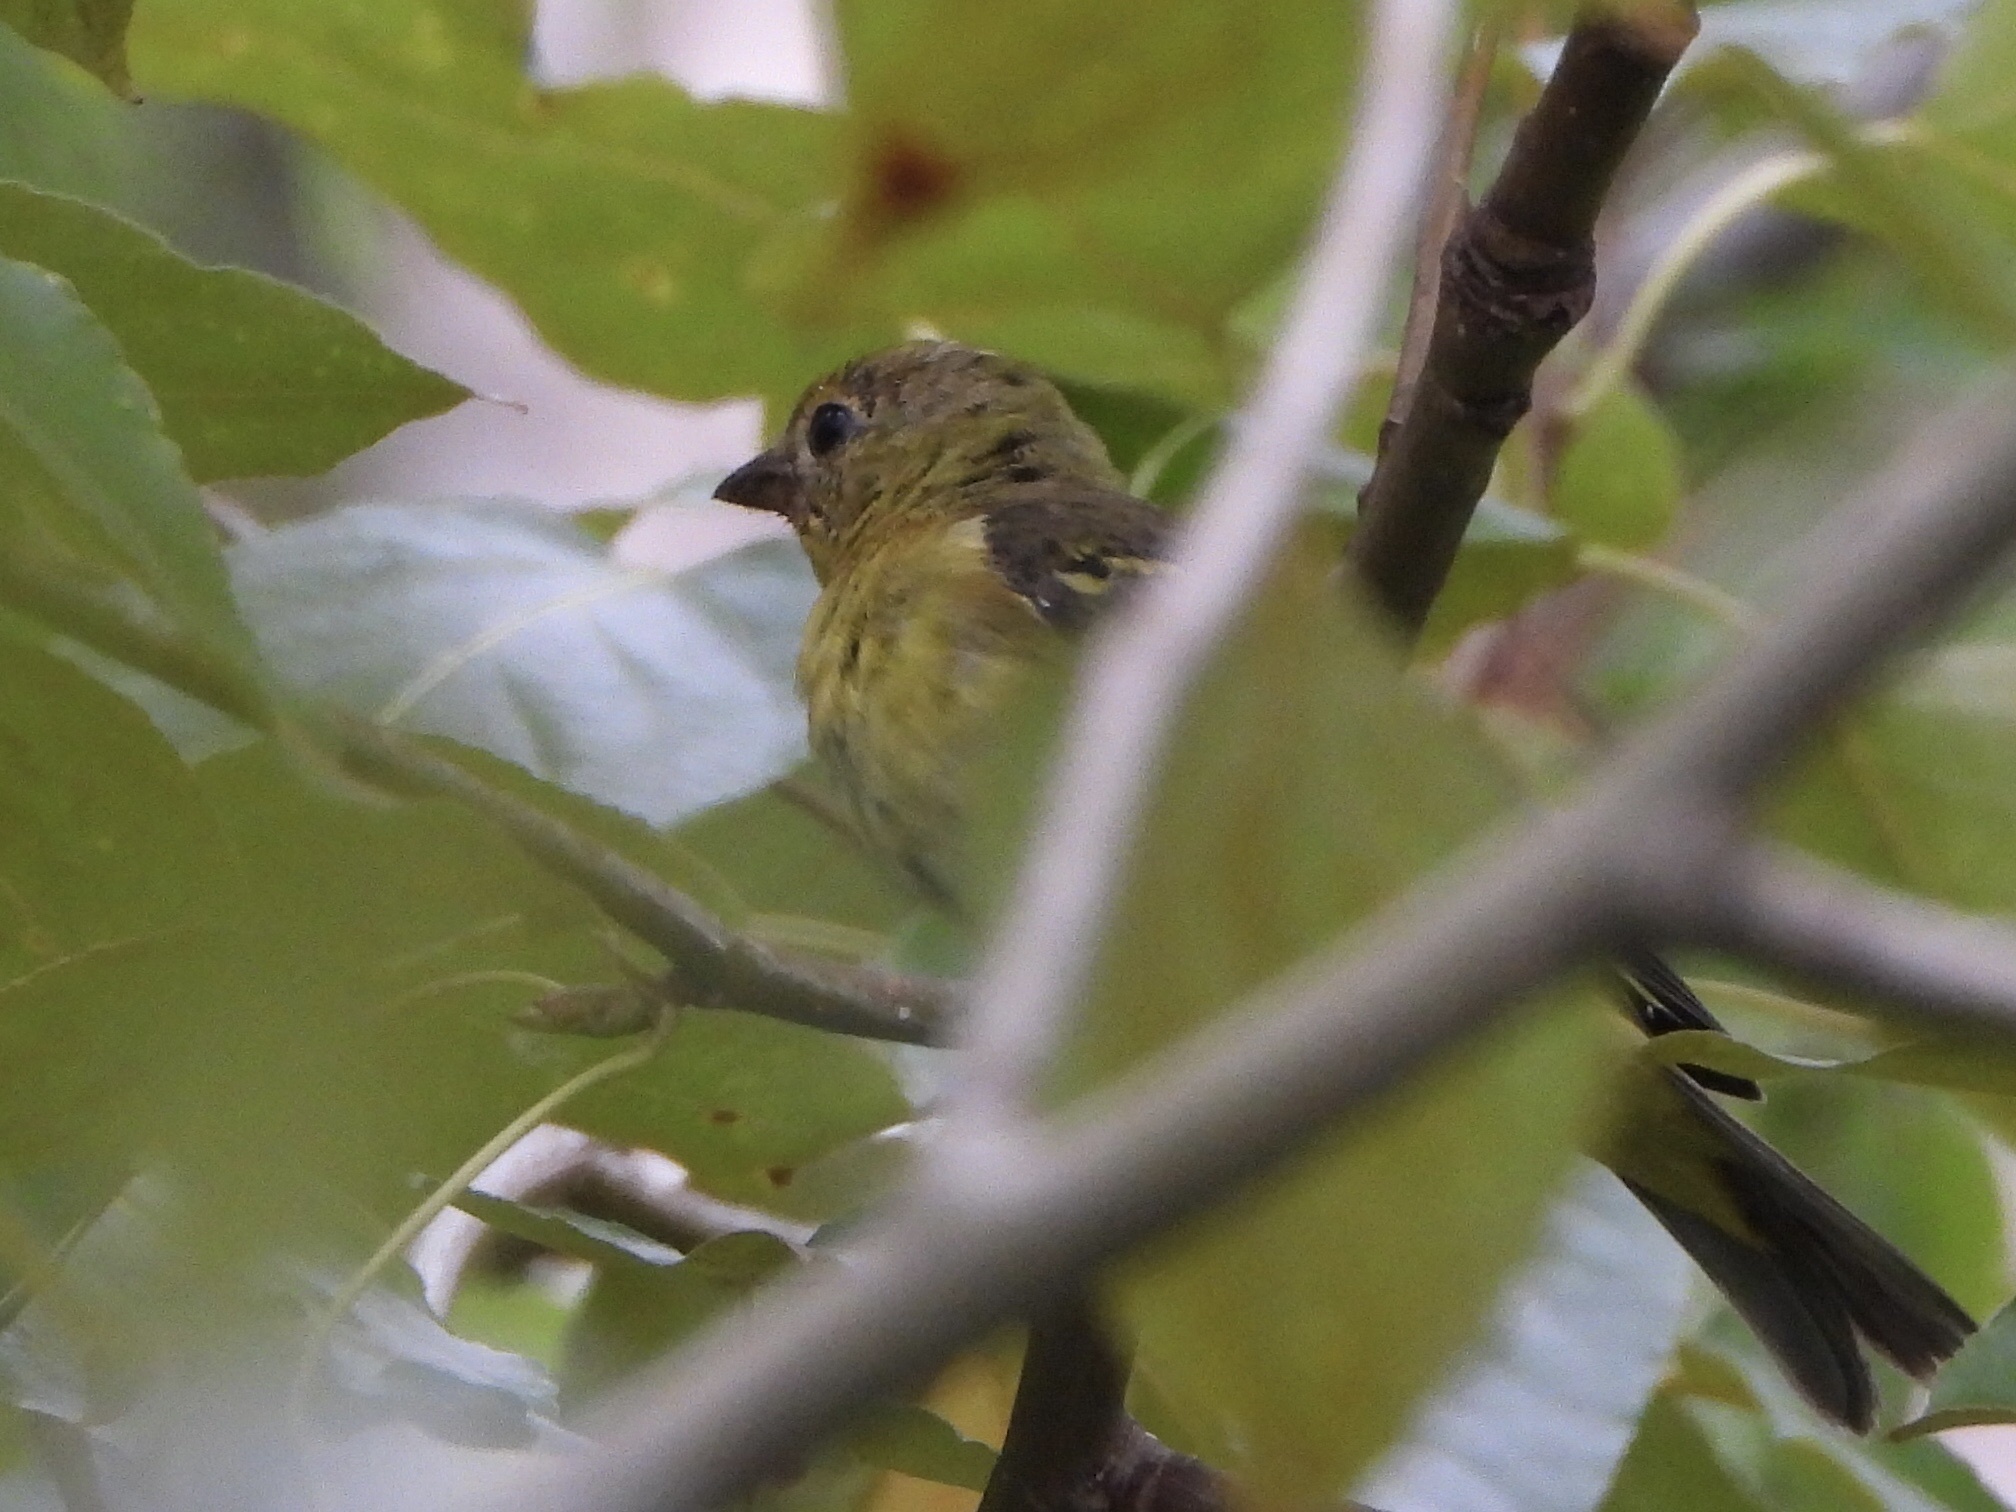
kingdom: Animalia
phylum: Chordata
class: Aves
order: Passeriformes
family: Cardinalidae
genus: Piranga
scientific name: Piranga ludoviciana
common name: Western tanager
